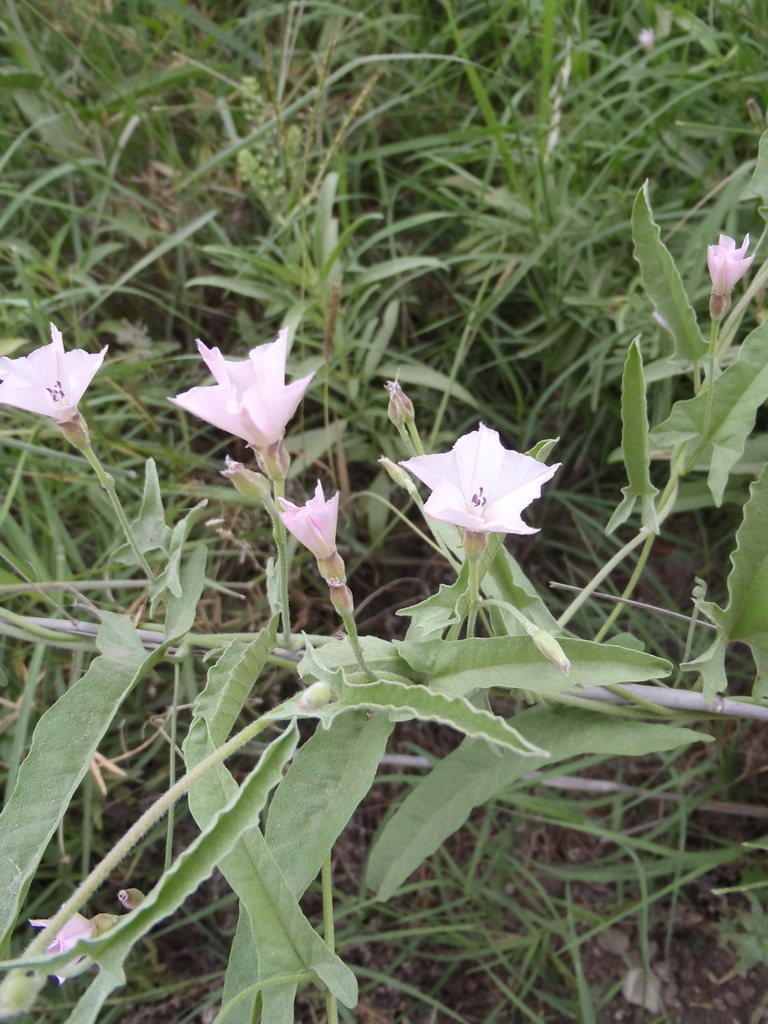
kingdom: Plantae
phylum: Tracheophyta
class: Magnoliopsida
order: Solanales
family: Convolvulaceae
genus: Convolvulus
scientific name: Convolvulus equitans
